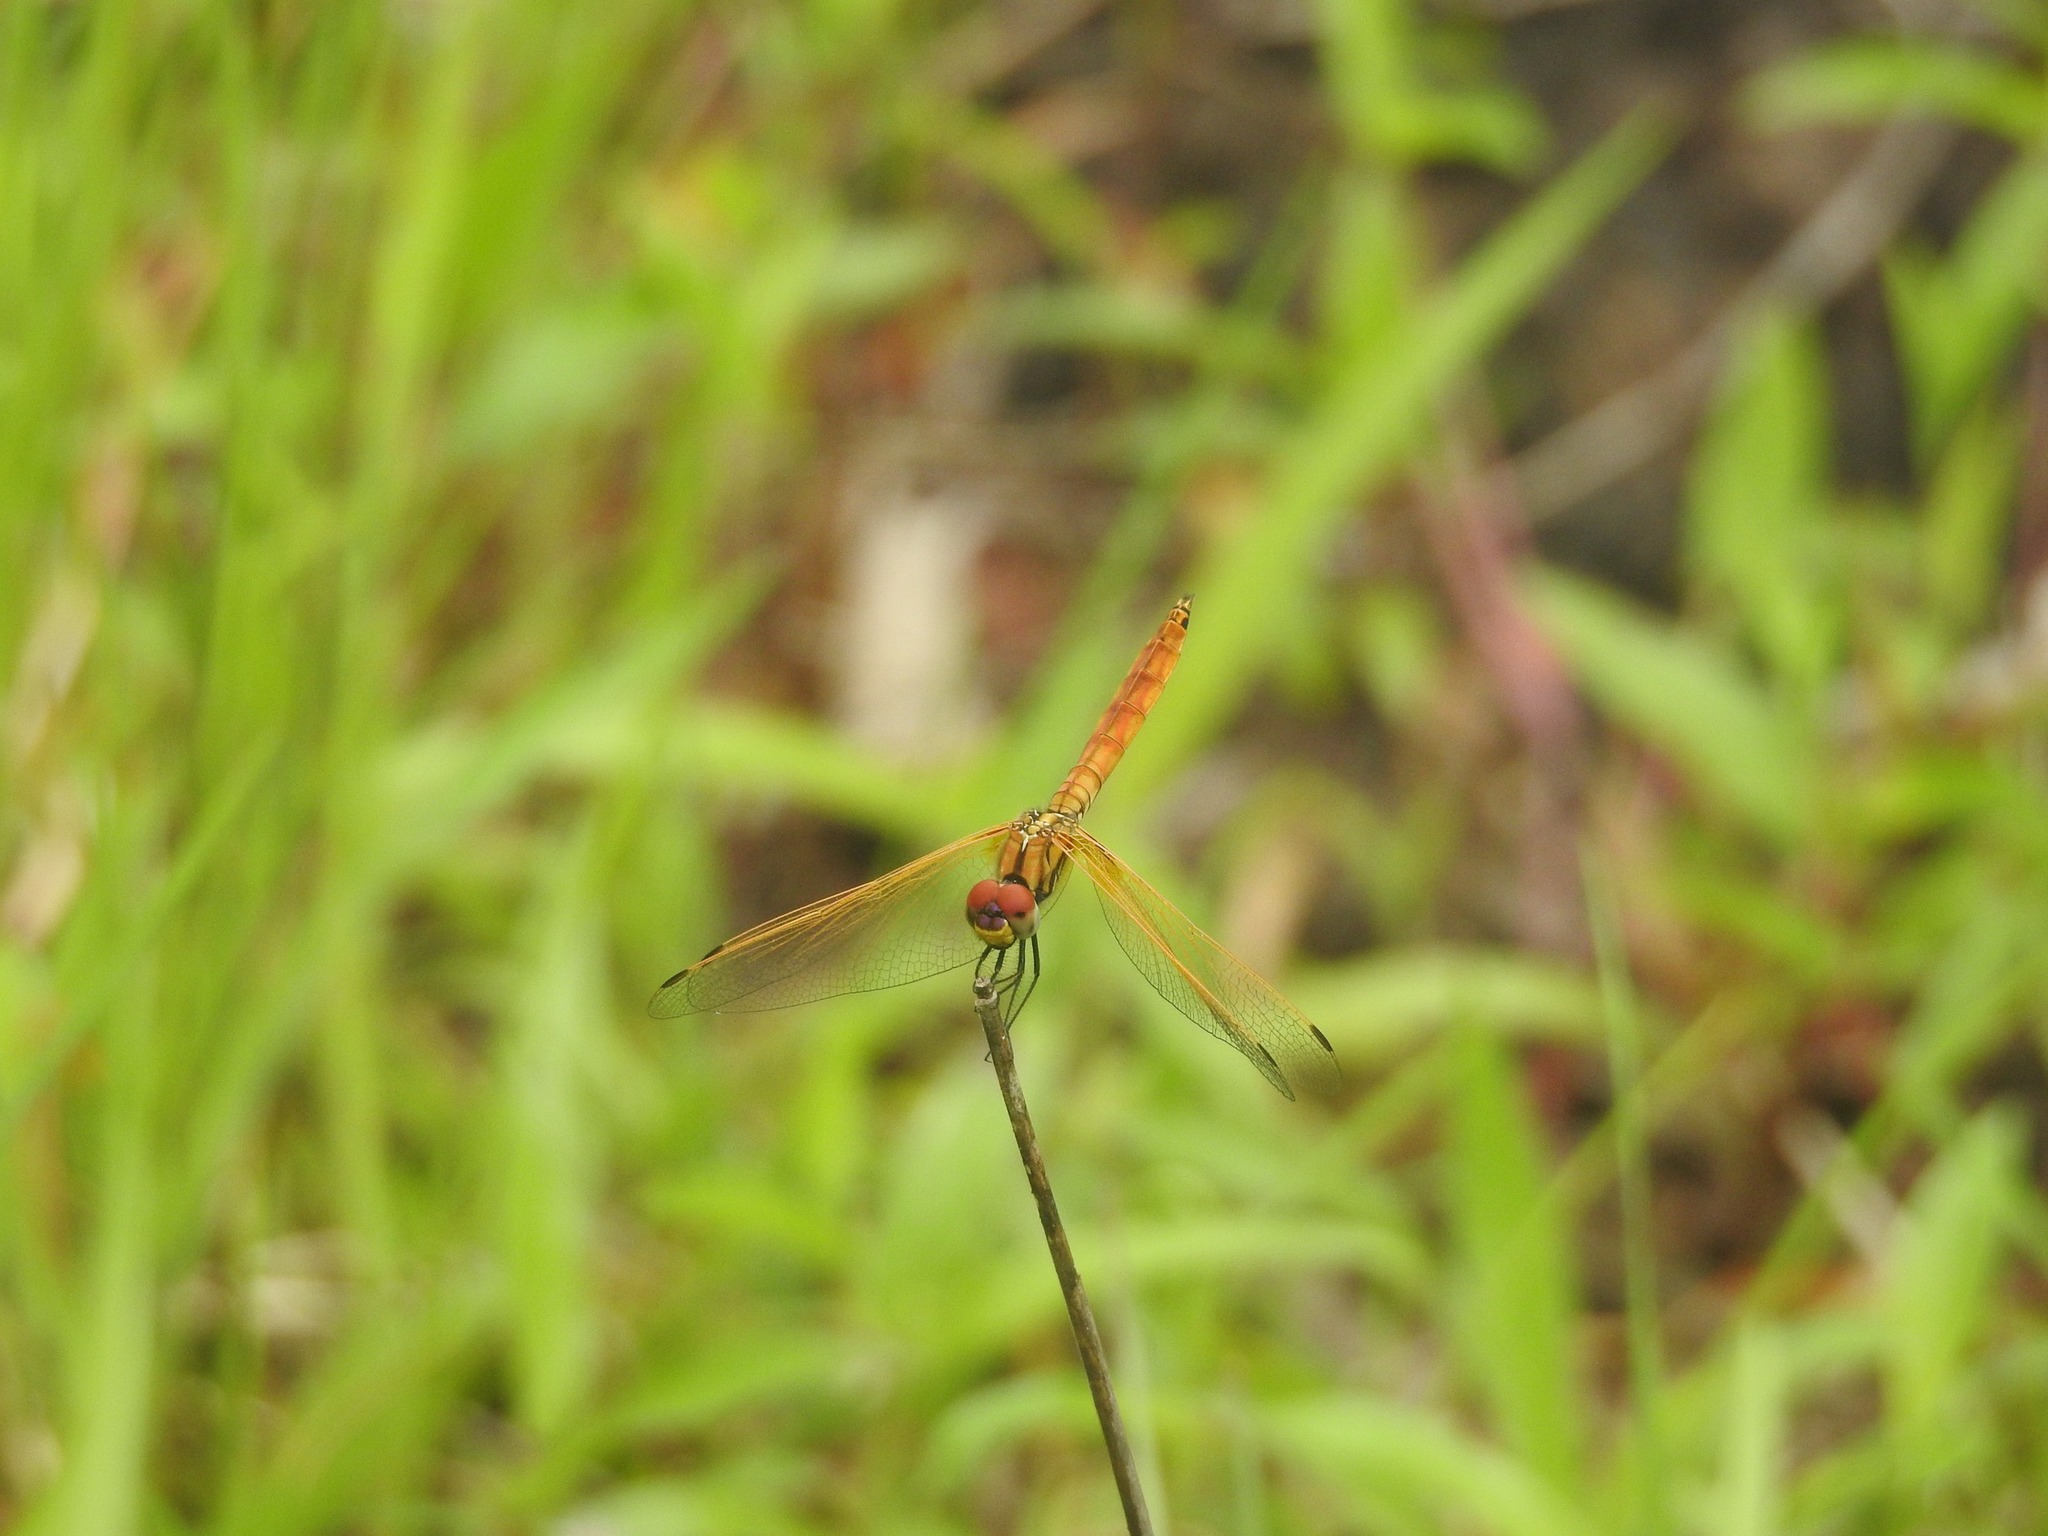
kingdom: Animalia
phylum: Arthropoda
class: Insecta
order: Odonata
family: Libellulidae
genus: Trithemis
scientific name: Trithemis aurora
